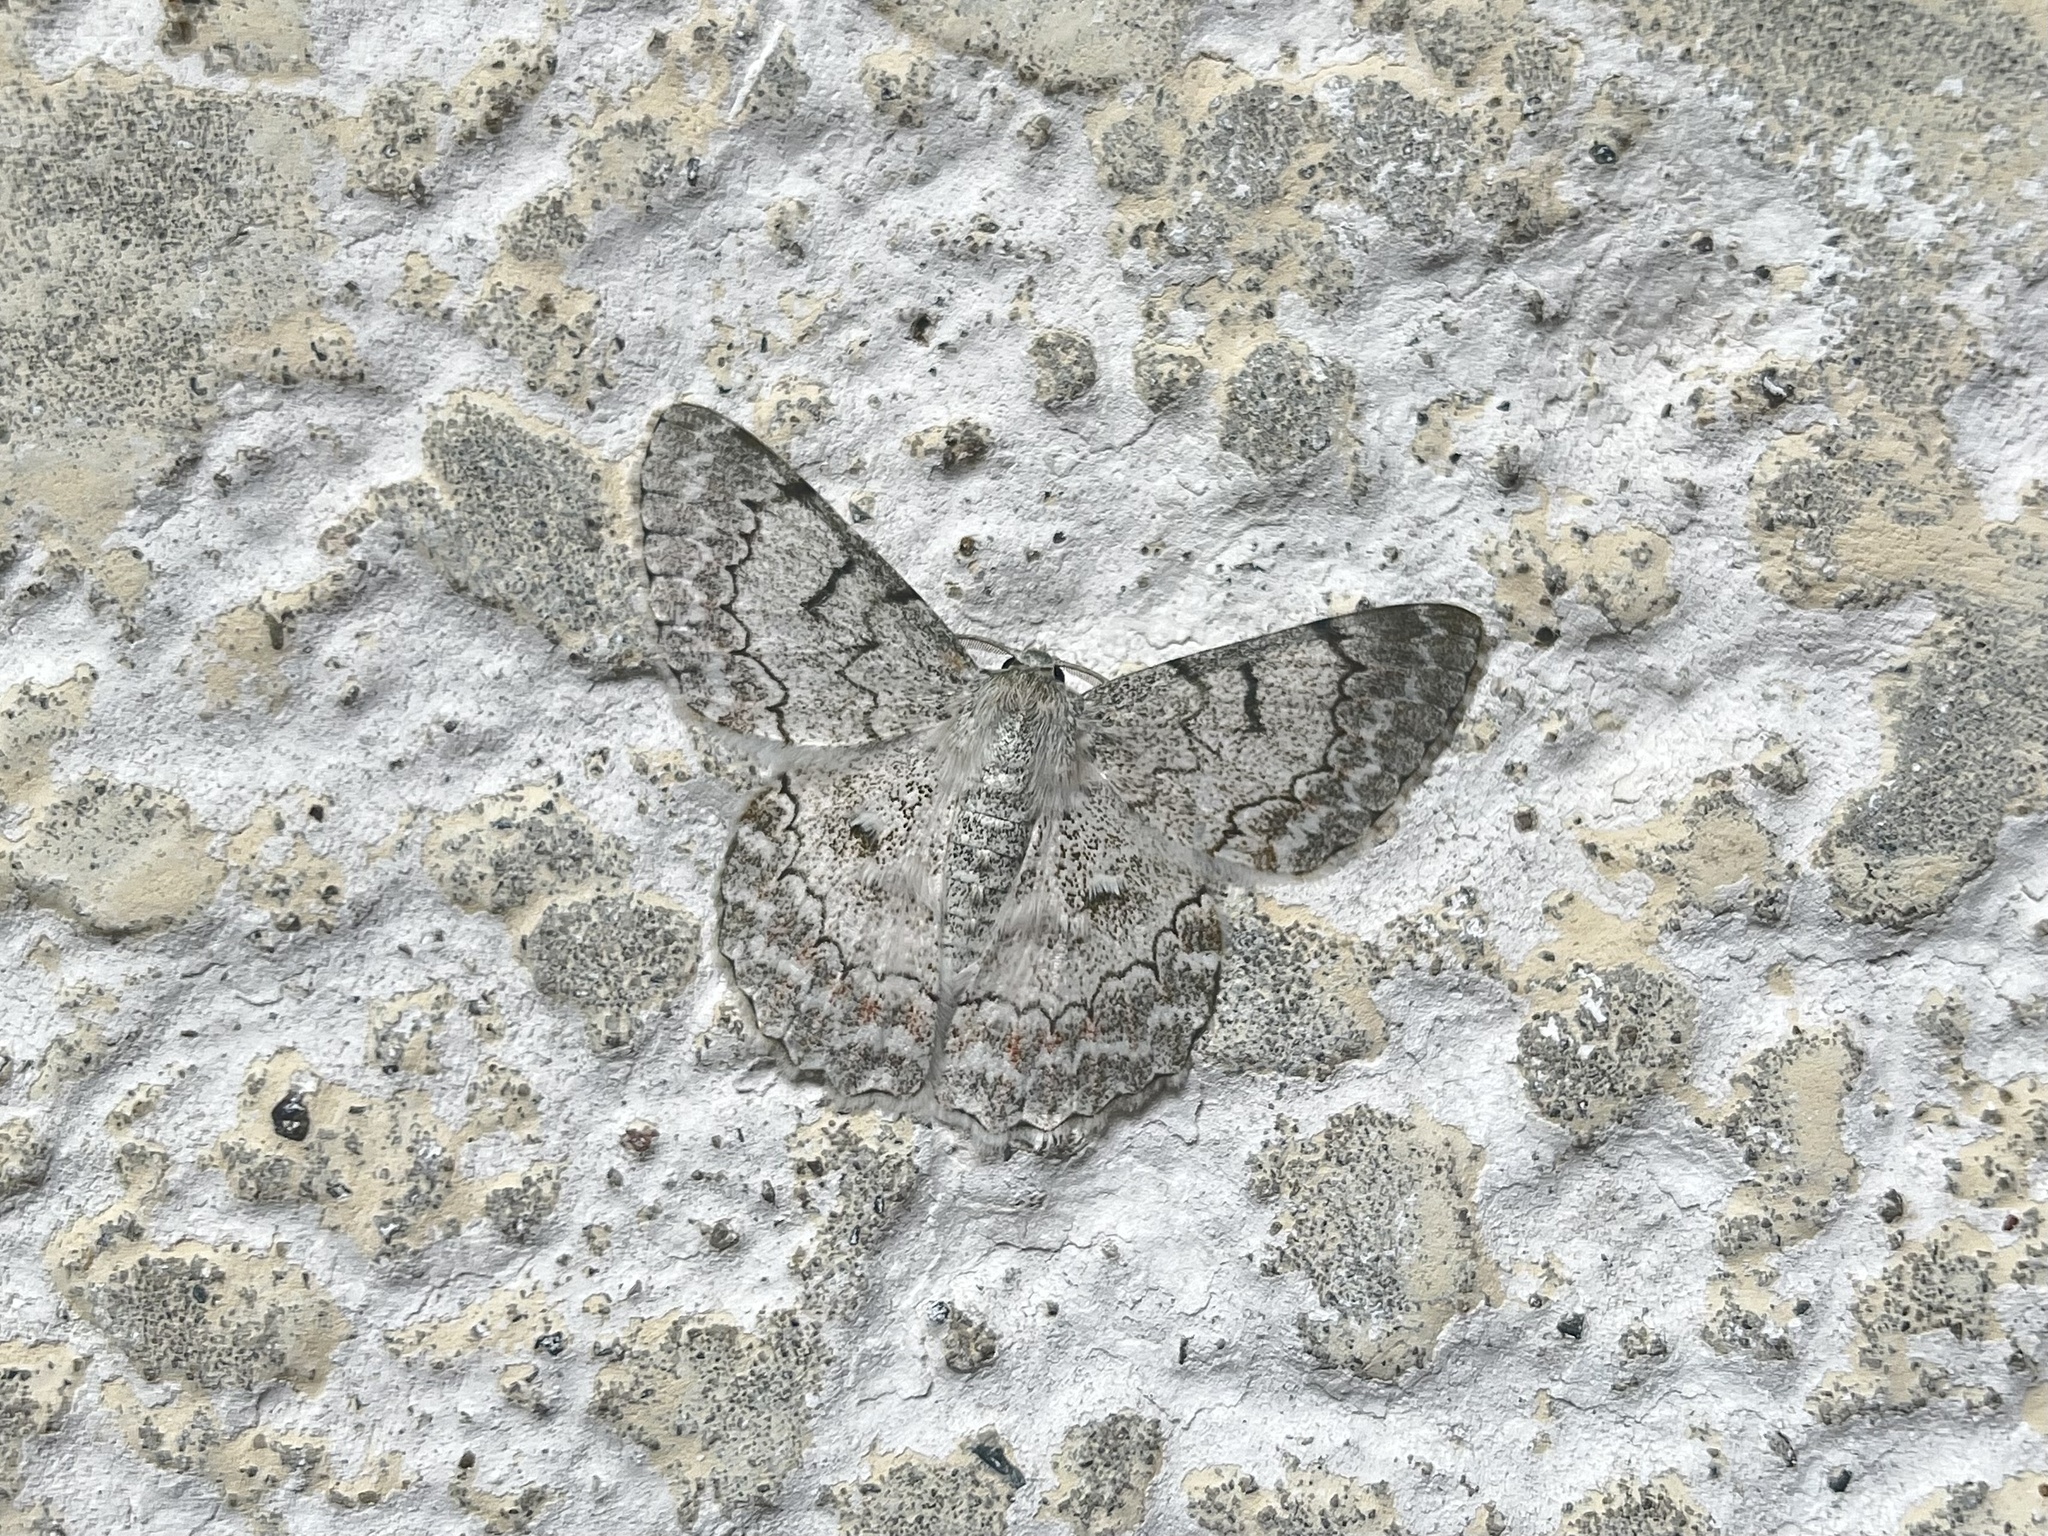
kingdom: Animalia
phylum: Arthropoda
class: Insecta
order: Lepidoptera
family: Geometridae
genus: Pingasa
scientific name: Pingasa chlora
